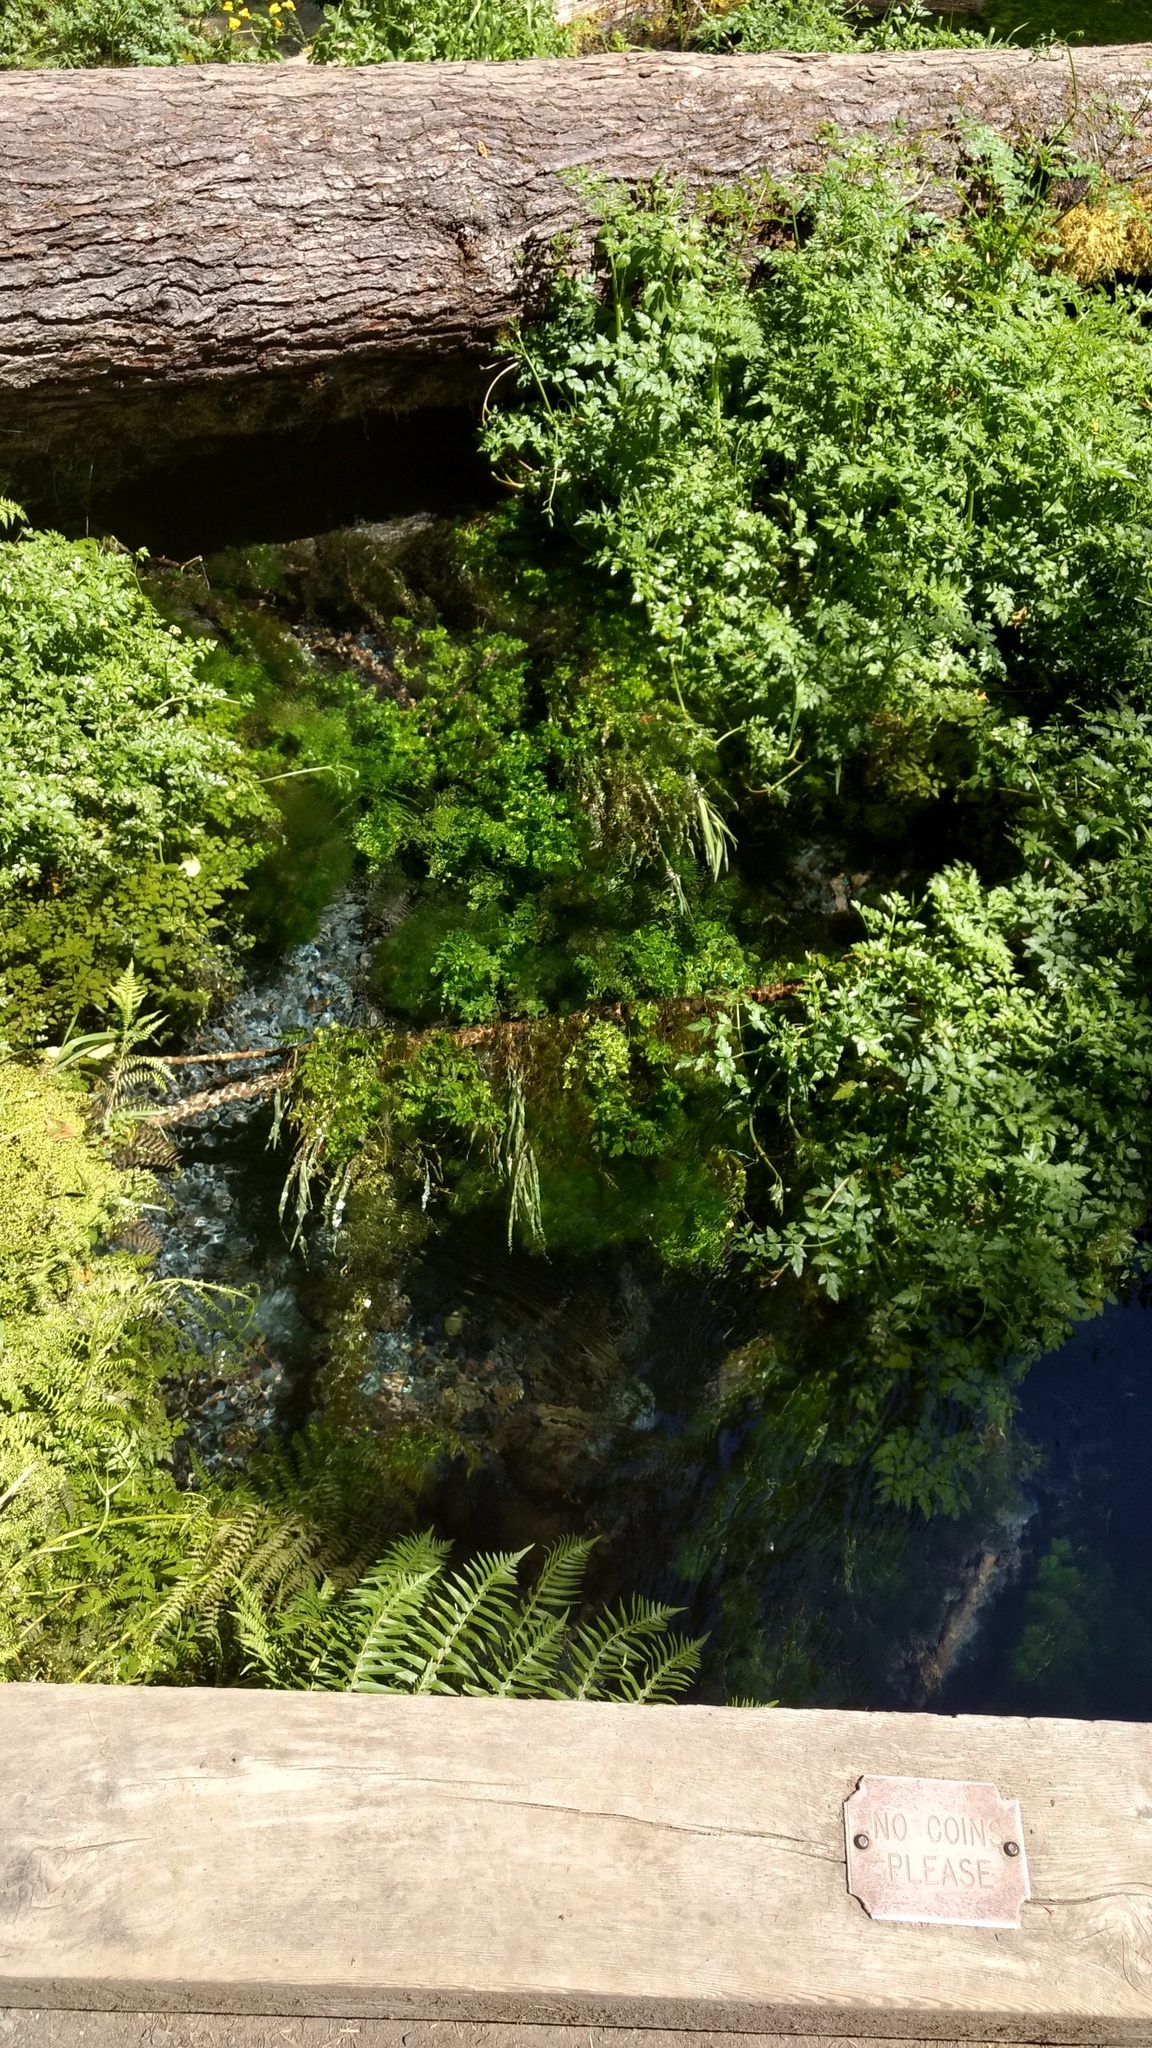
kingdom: Plantae
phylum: Tracheophyta
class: Magnoliopsida
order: Apiales
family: Apiaceae
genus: Oenanthe
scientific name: Oenanthe sarmentosa
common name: American water-parsley
